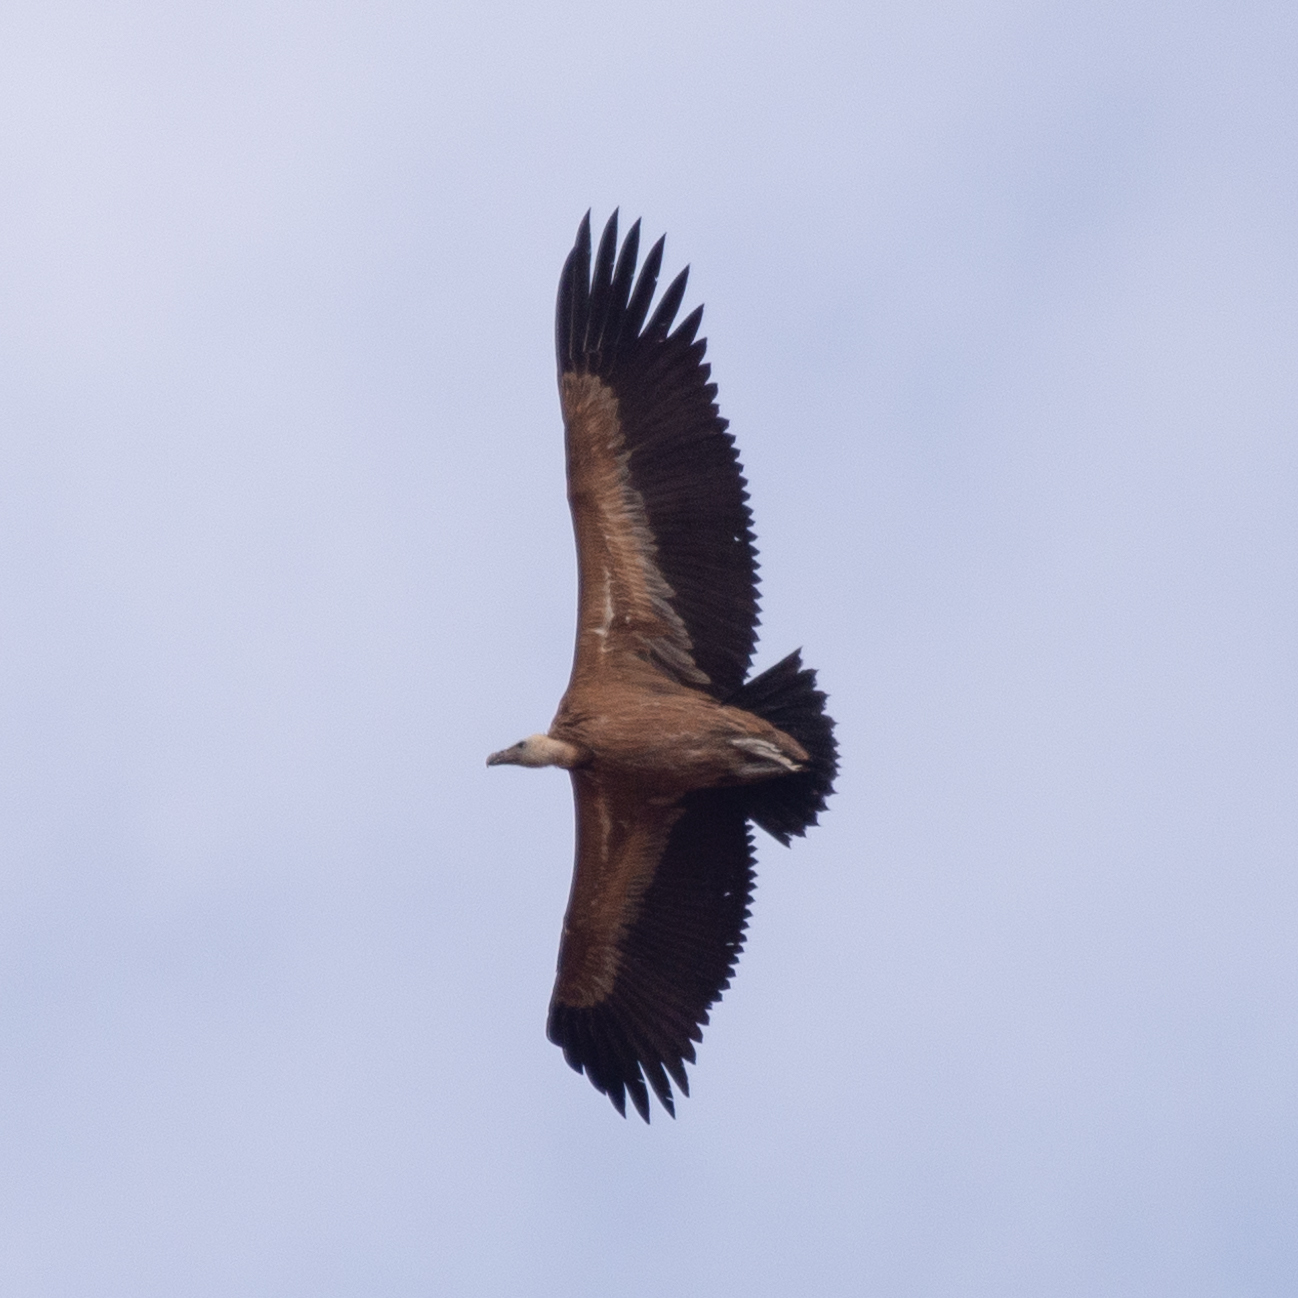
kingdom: Animalia
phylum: Chordata
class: Aves
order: Accipitriformes
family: Accipitridae
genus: Gyps
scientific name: Gyps fulvus
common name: Griffon vulture
